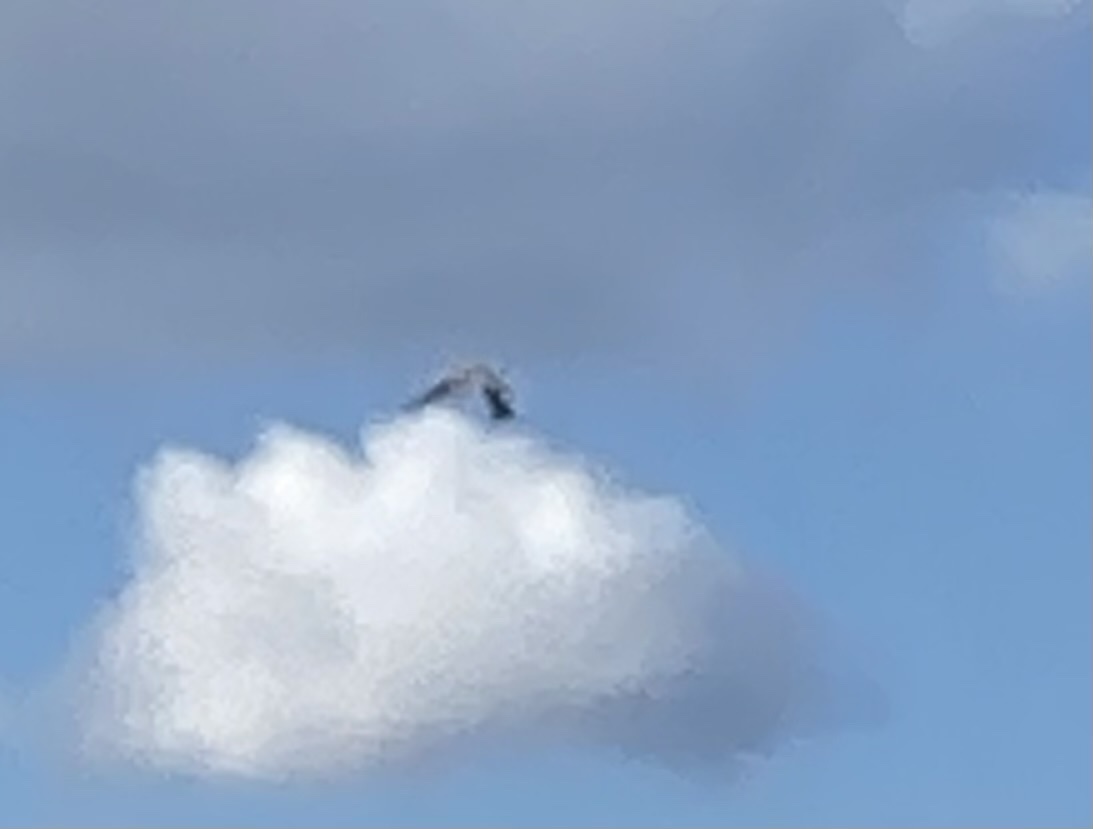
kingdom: Animalia
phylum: Chordata
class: Aves
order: Falconiformes
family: Falconidae
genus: Falco
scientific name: Falco tinnunculus
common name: Common kestrel
